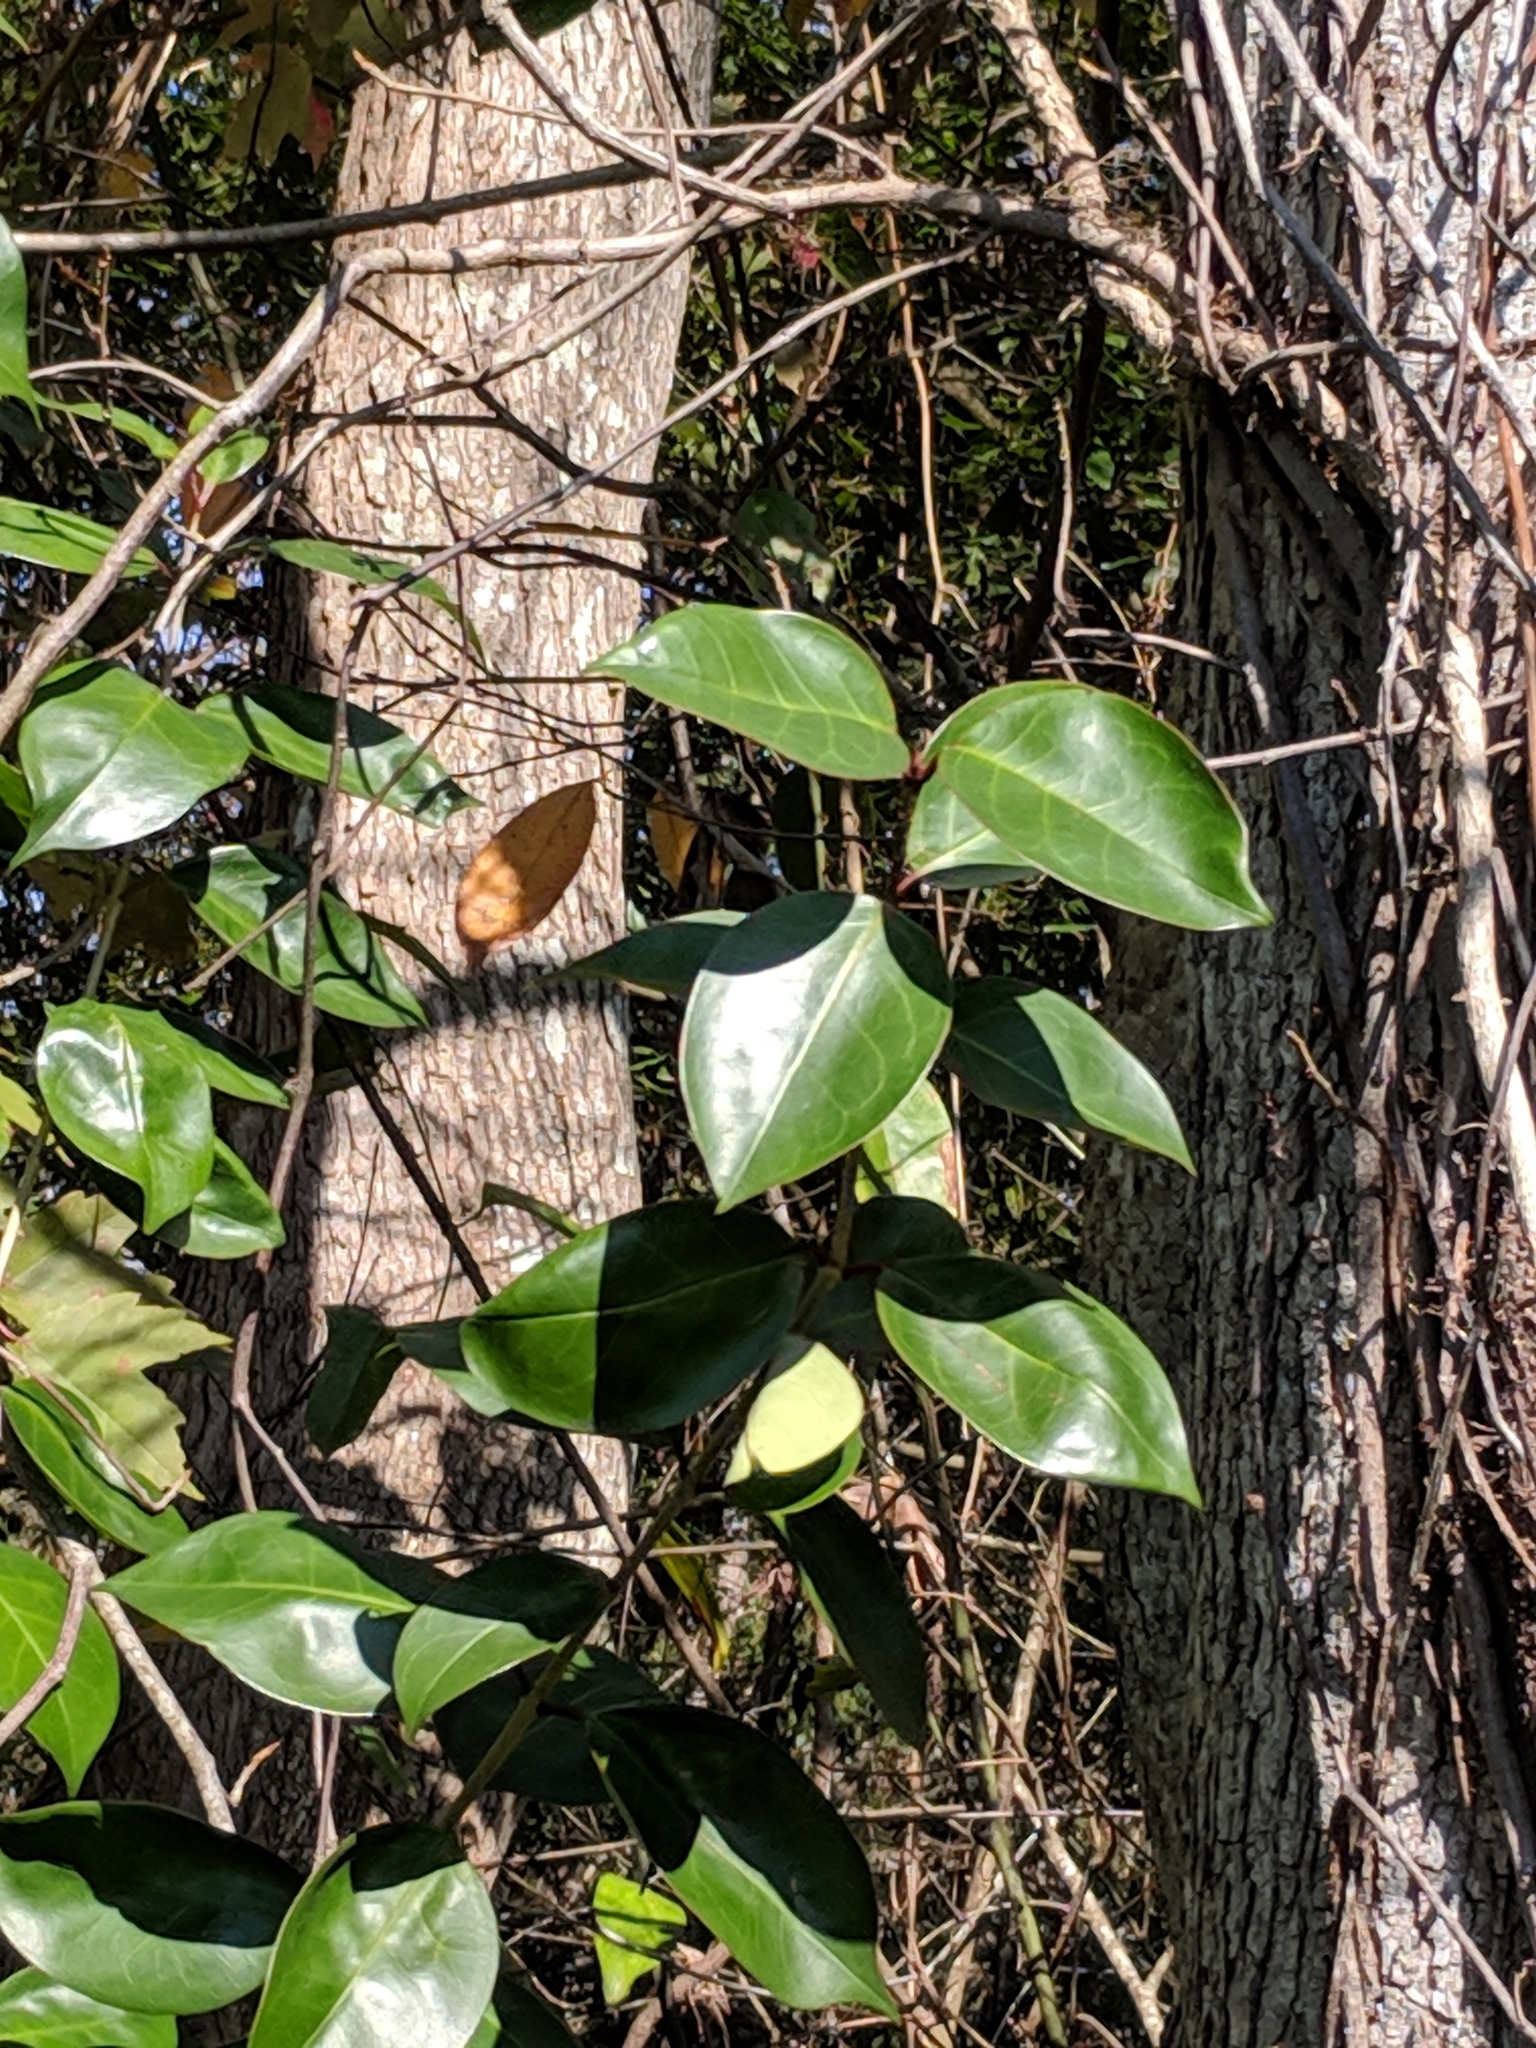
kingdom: Plantae
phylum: Tracheophyta
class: Magnoliopsida
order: Lamiales
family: Oleaceae
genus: Ligustrum
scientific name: Ligustrum lucidum
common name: Glossy privet
